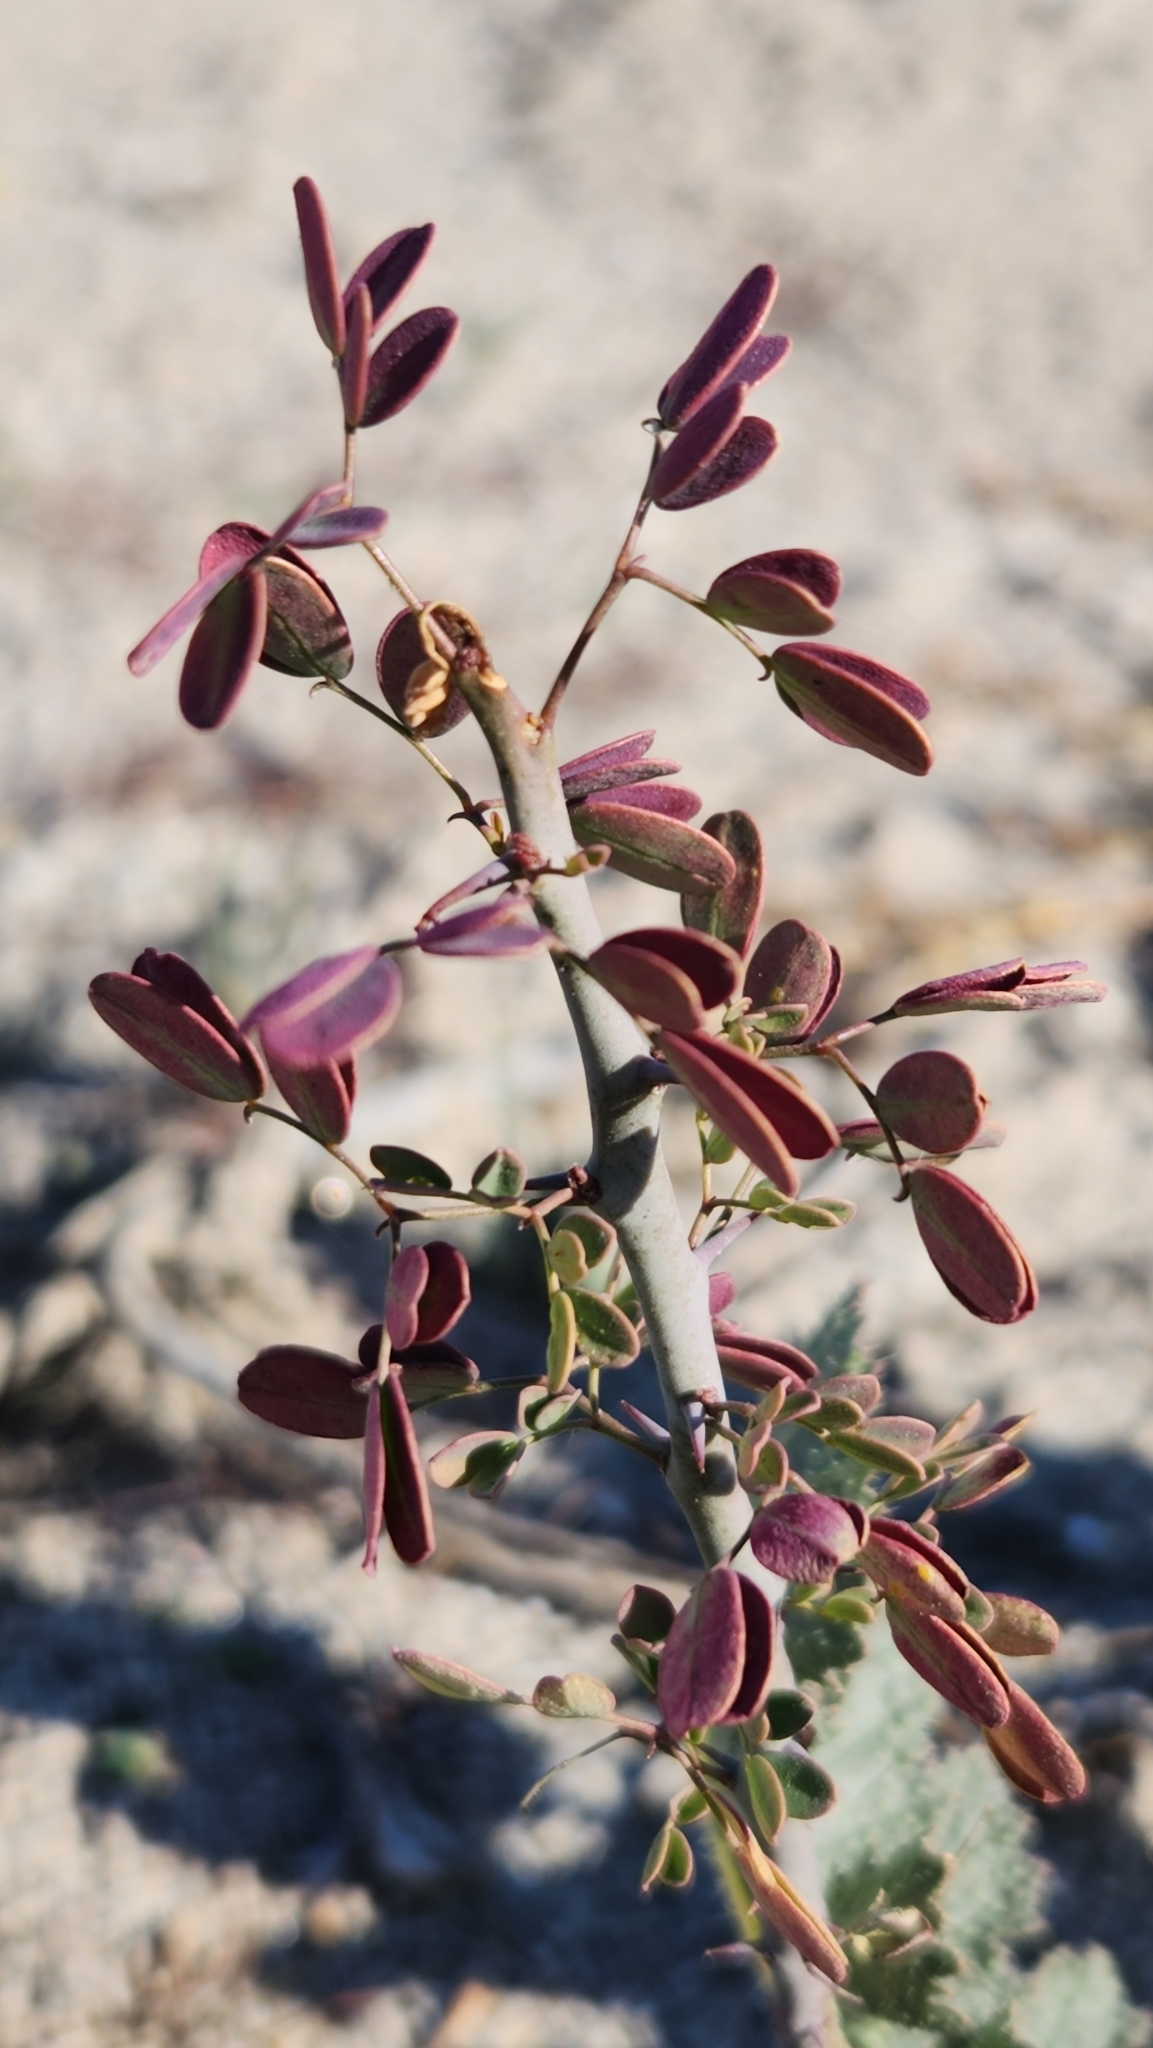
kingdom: Plantae
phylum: Tracheophyta
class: Magnoliopsida
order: Fabales
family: Fabaceae
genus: Senegalia
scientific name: Senegalia greggii
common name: Texas-mimosa
